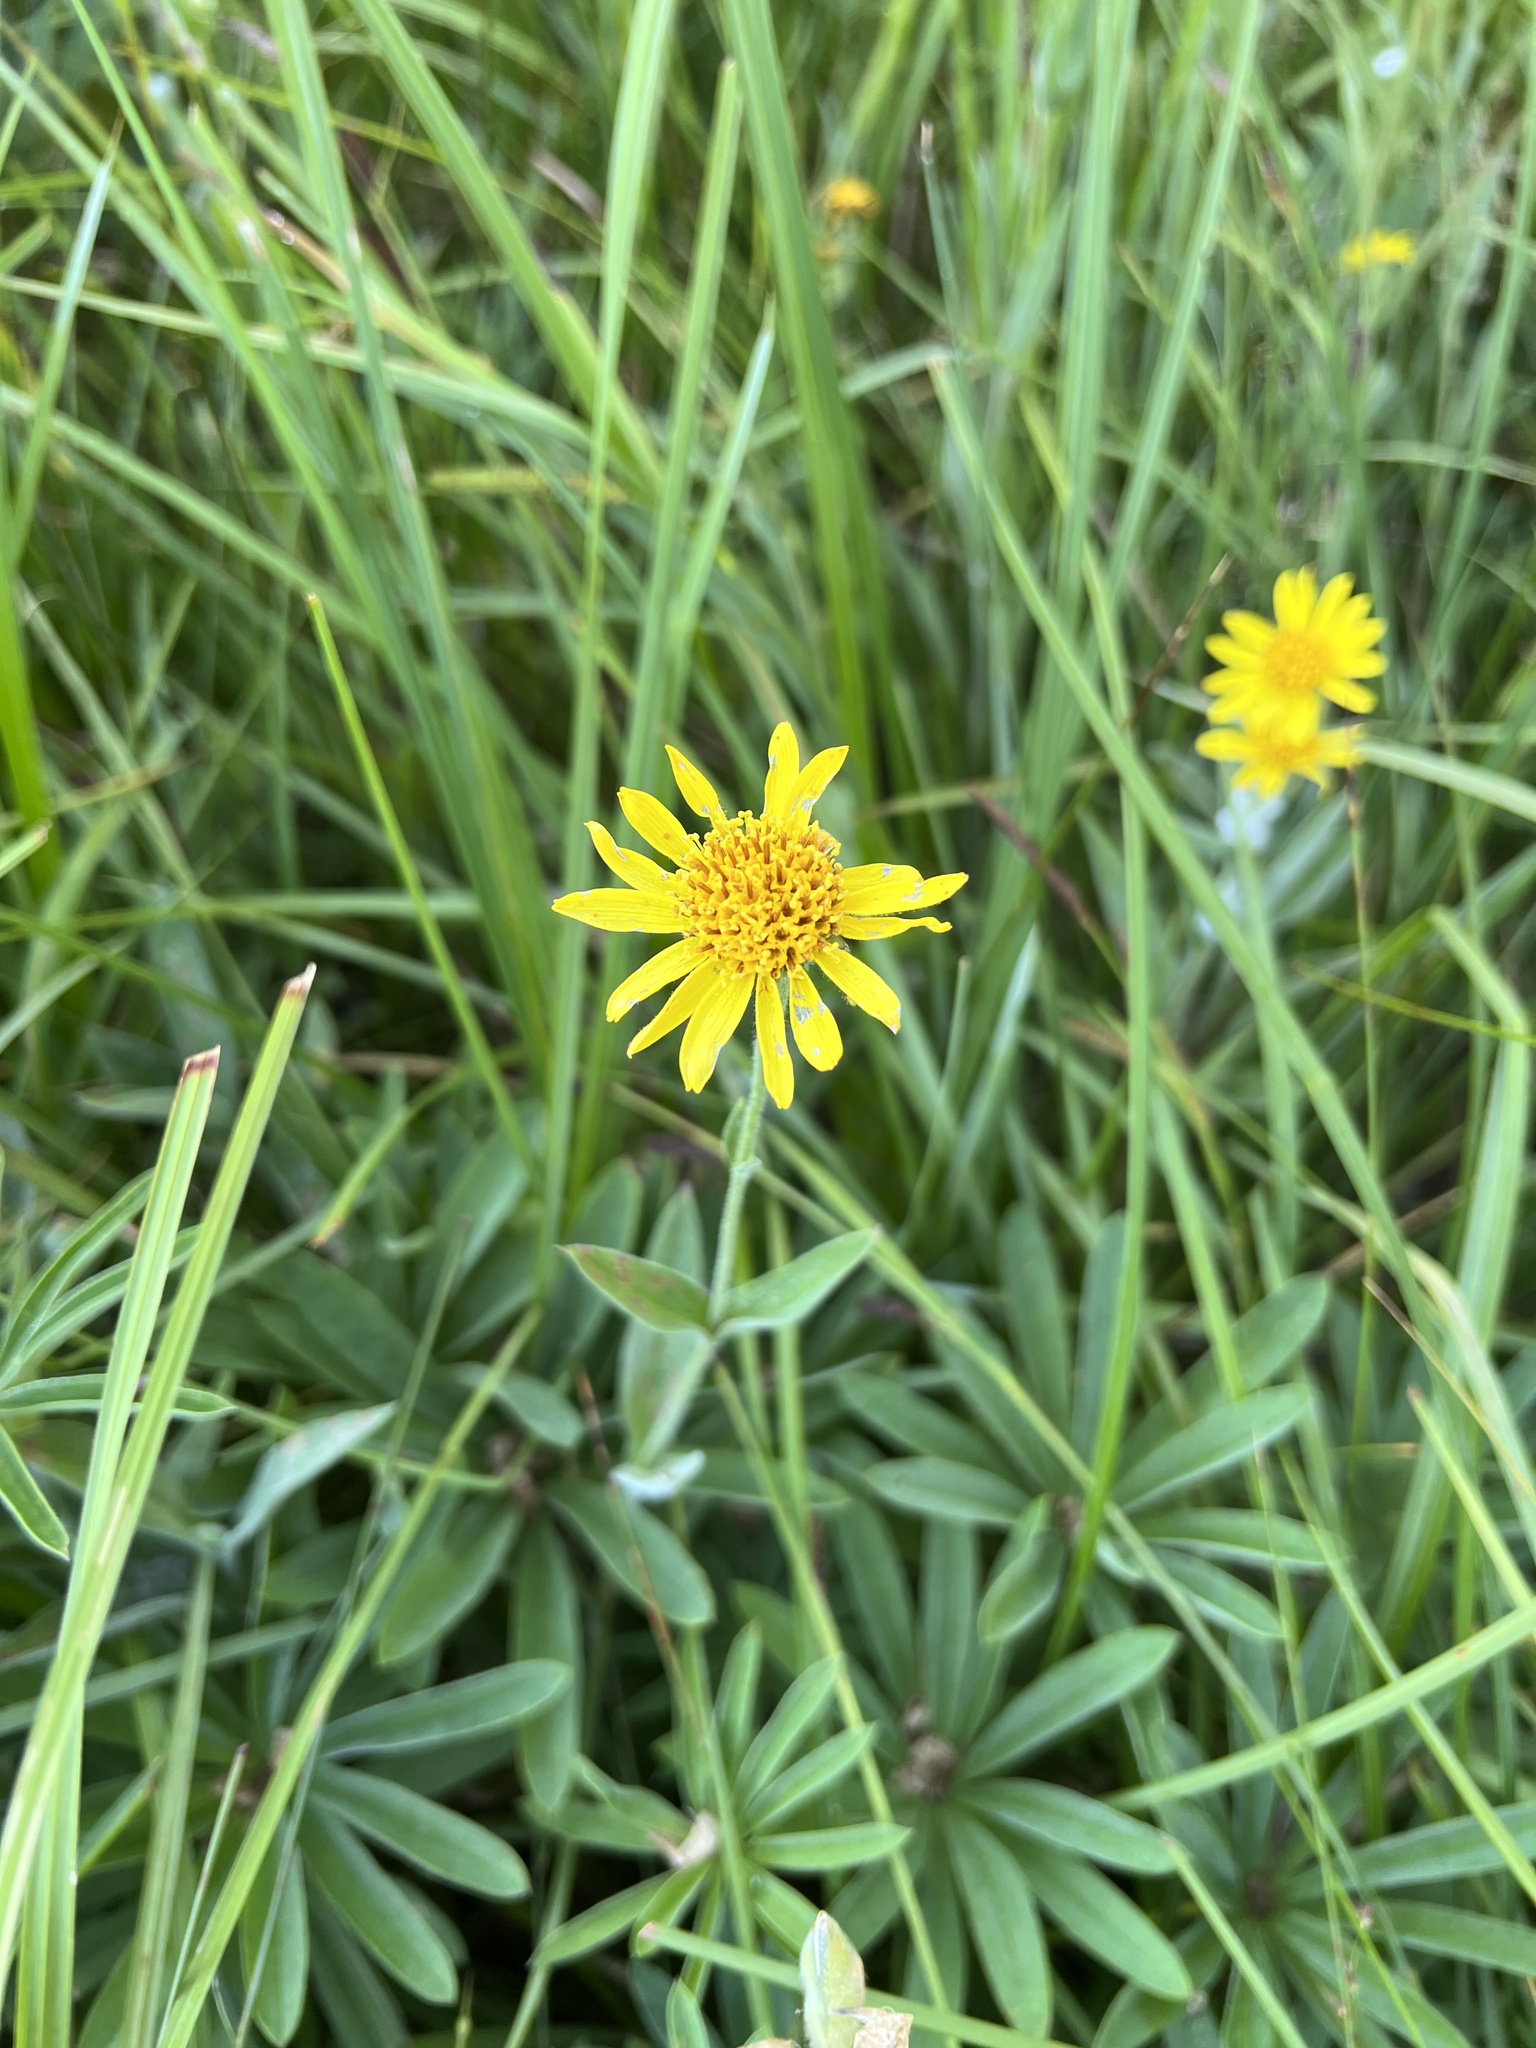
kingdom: Plantae
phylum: Tracheophyta
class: Magnoliopsida
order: Asterales
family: Asteraceae
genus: Arnica
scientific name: Arnica chamissonis
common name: Leafy arnica
